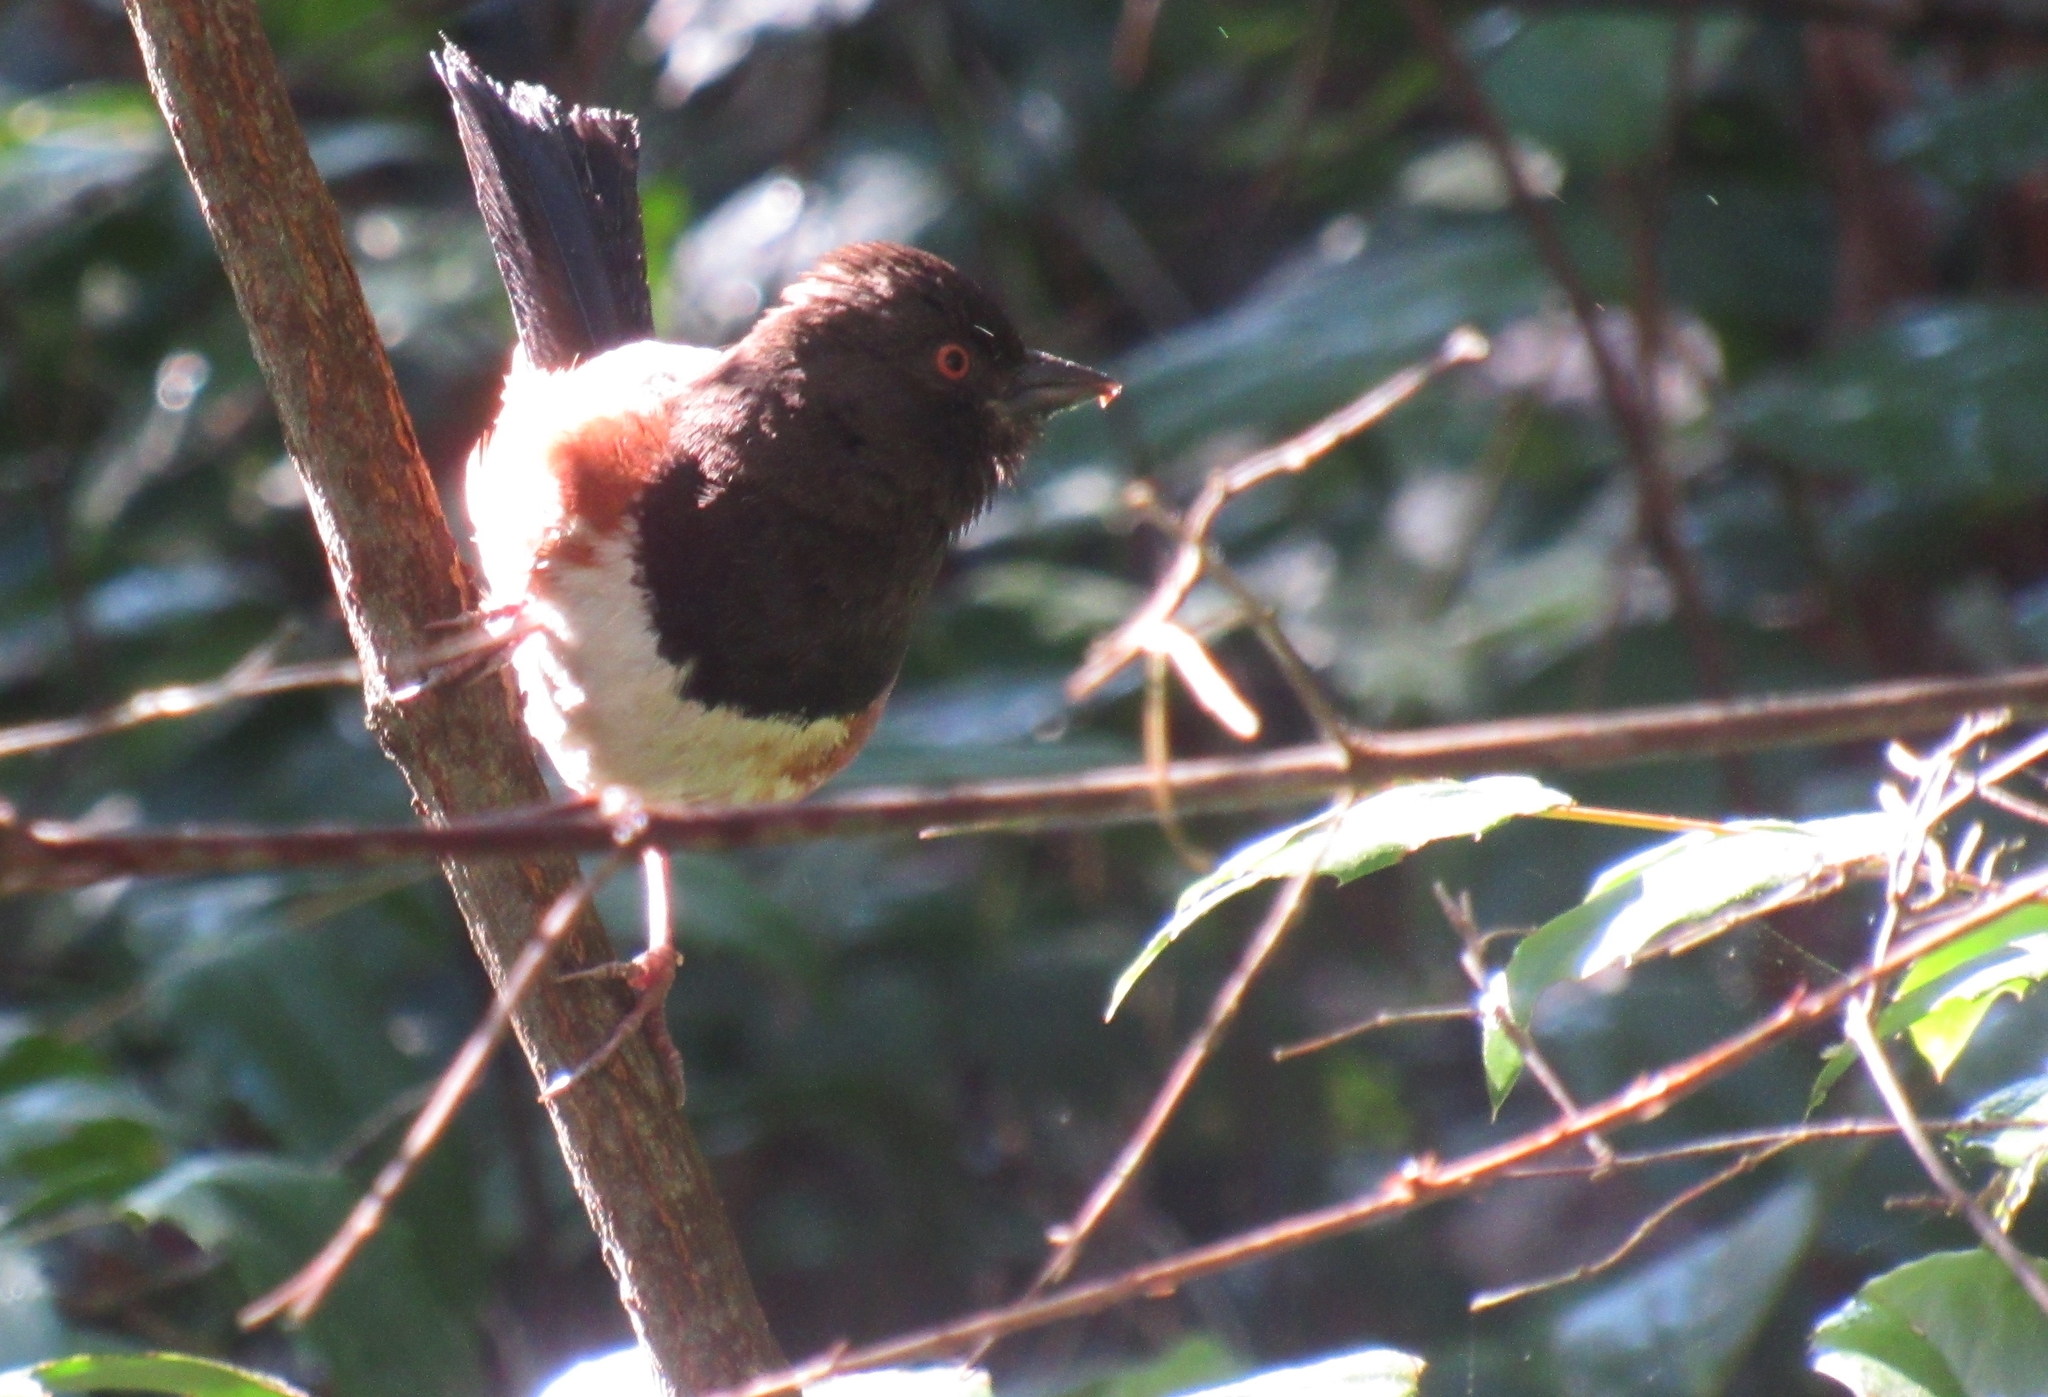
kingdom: Animalia
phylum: Chordata
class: Aves
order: Passeriformes
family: Passerellidae
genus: Pipilo
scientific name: Pipilo maculatus
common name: Spotted towhee
